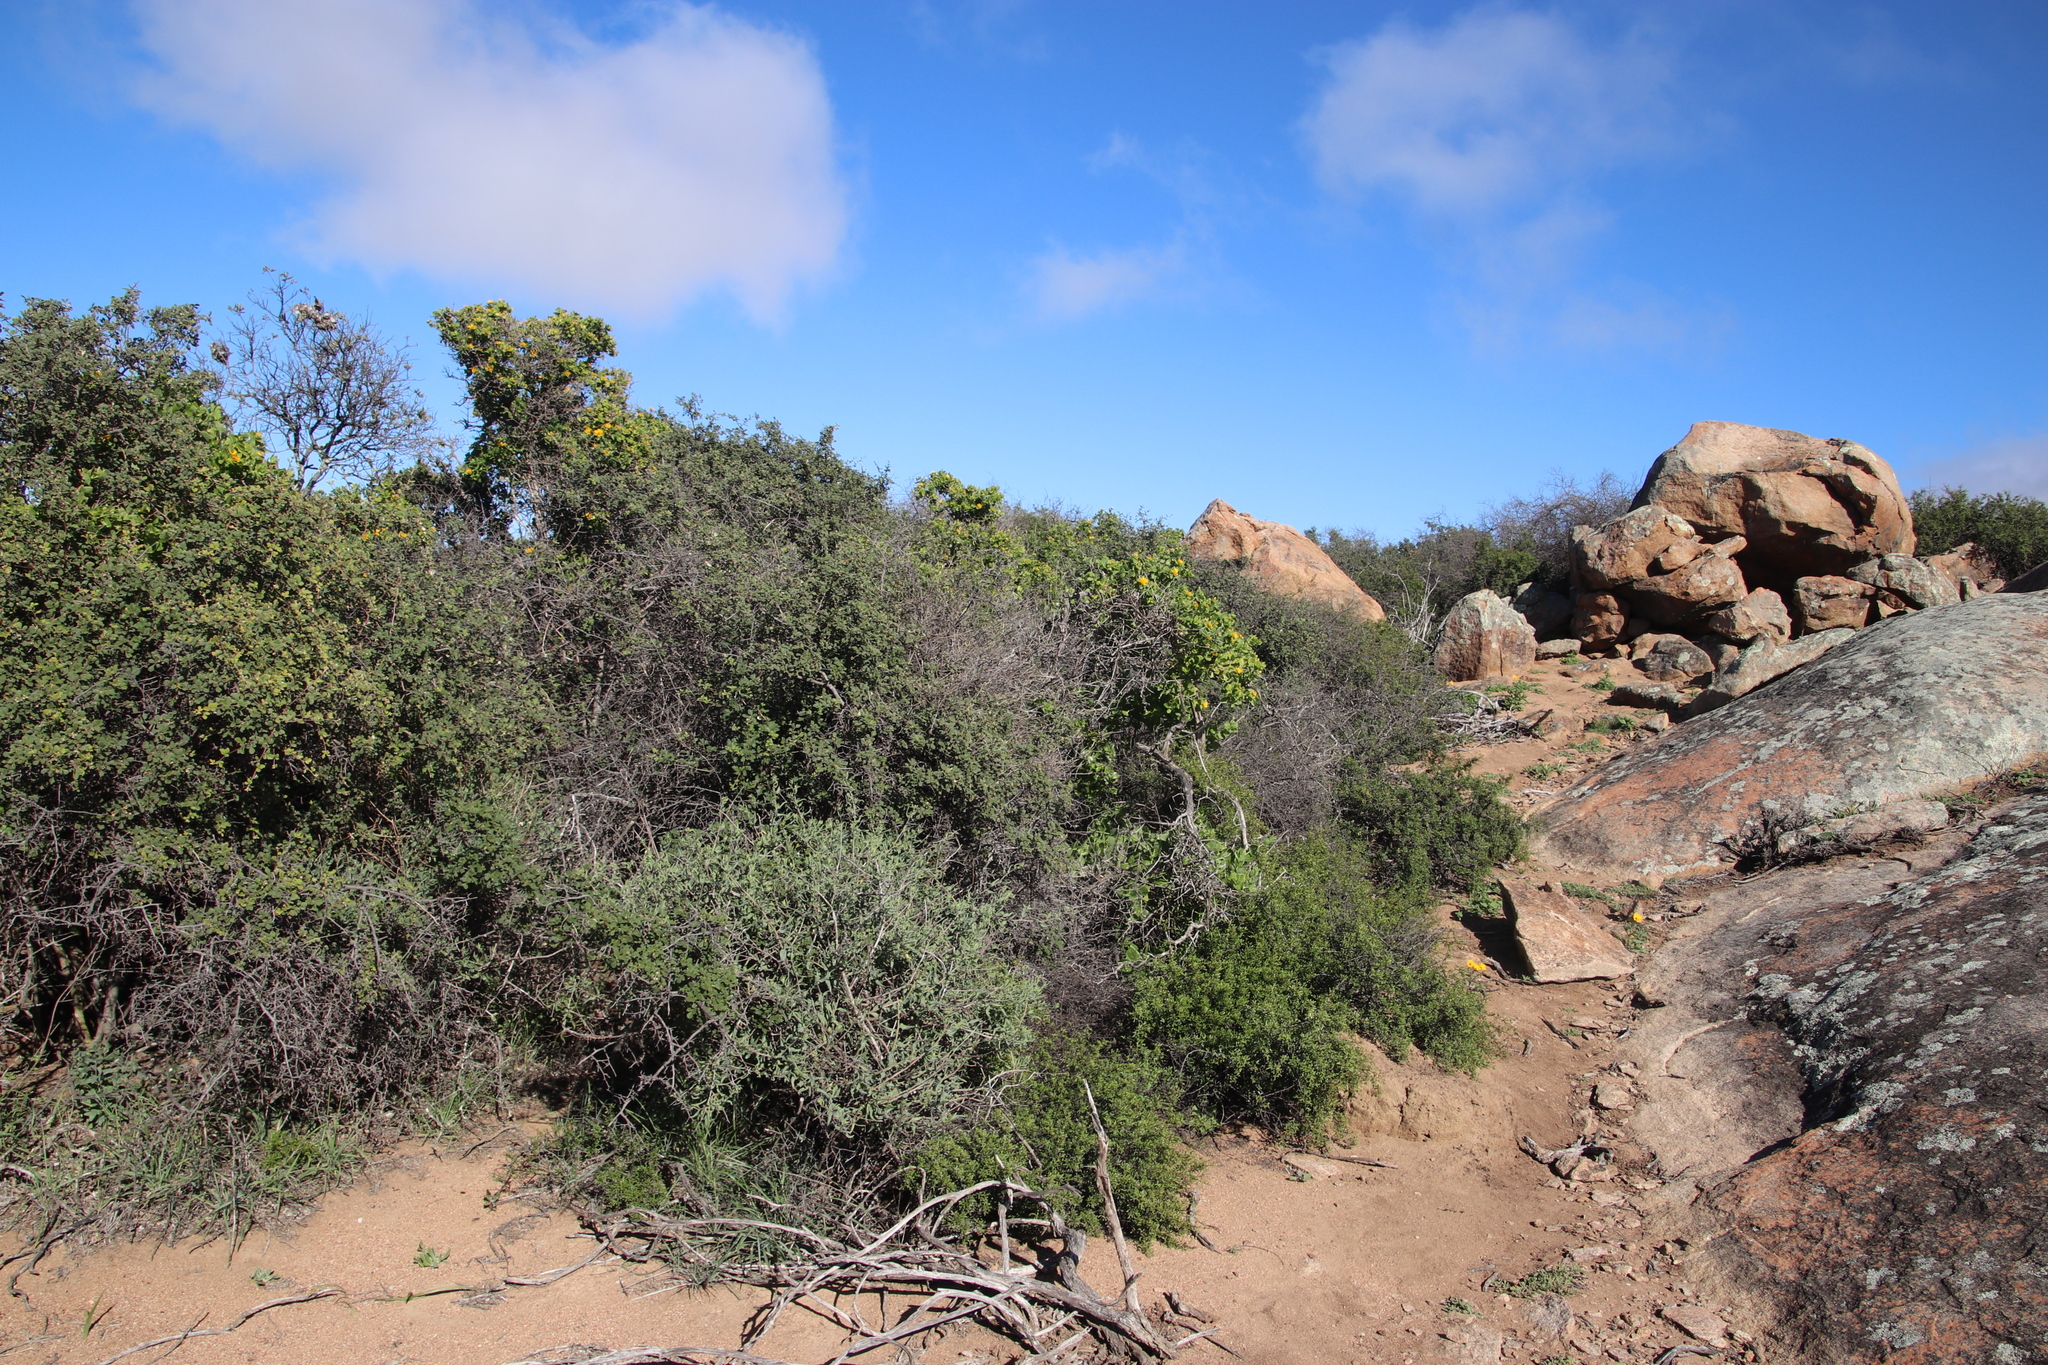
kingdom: Plantae
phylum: Tracheophyta
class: Magnoliopsida
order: Asterales
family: Asteraceae
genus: Didelta
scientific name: Didelta spinosa
